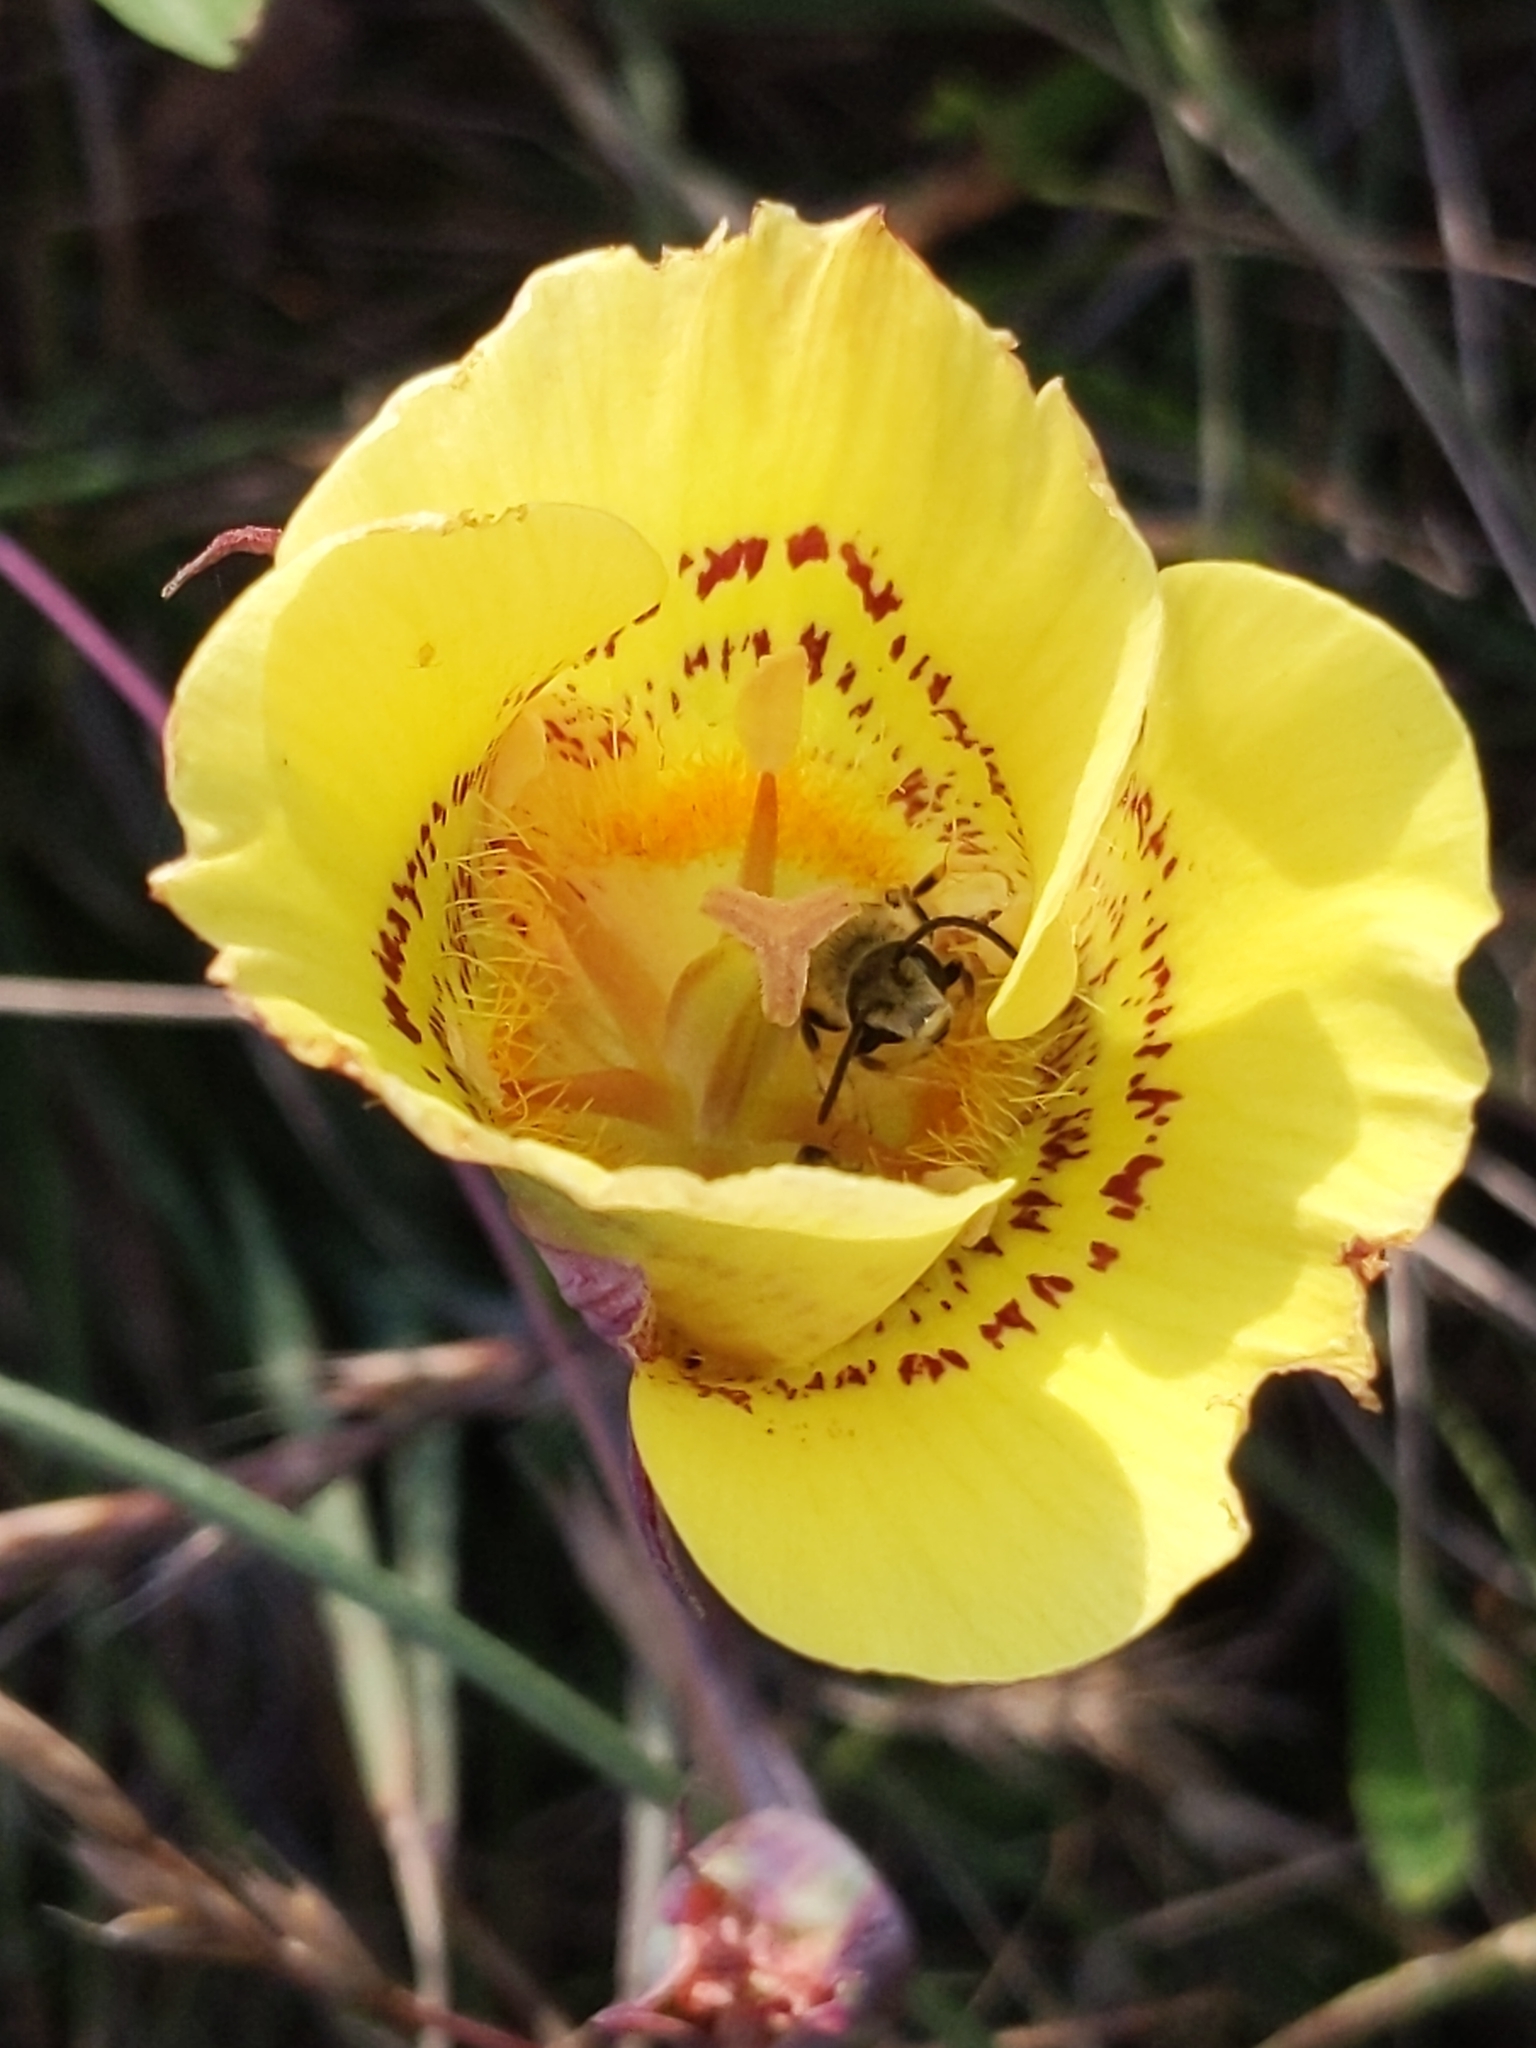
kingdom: Plantae
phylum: Tracheophyta
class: Liliopsida
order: Liliales
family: Liliaceae
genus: Calochortus
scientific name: Calochortus luteus
